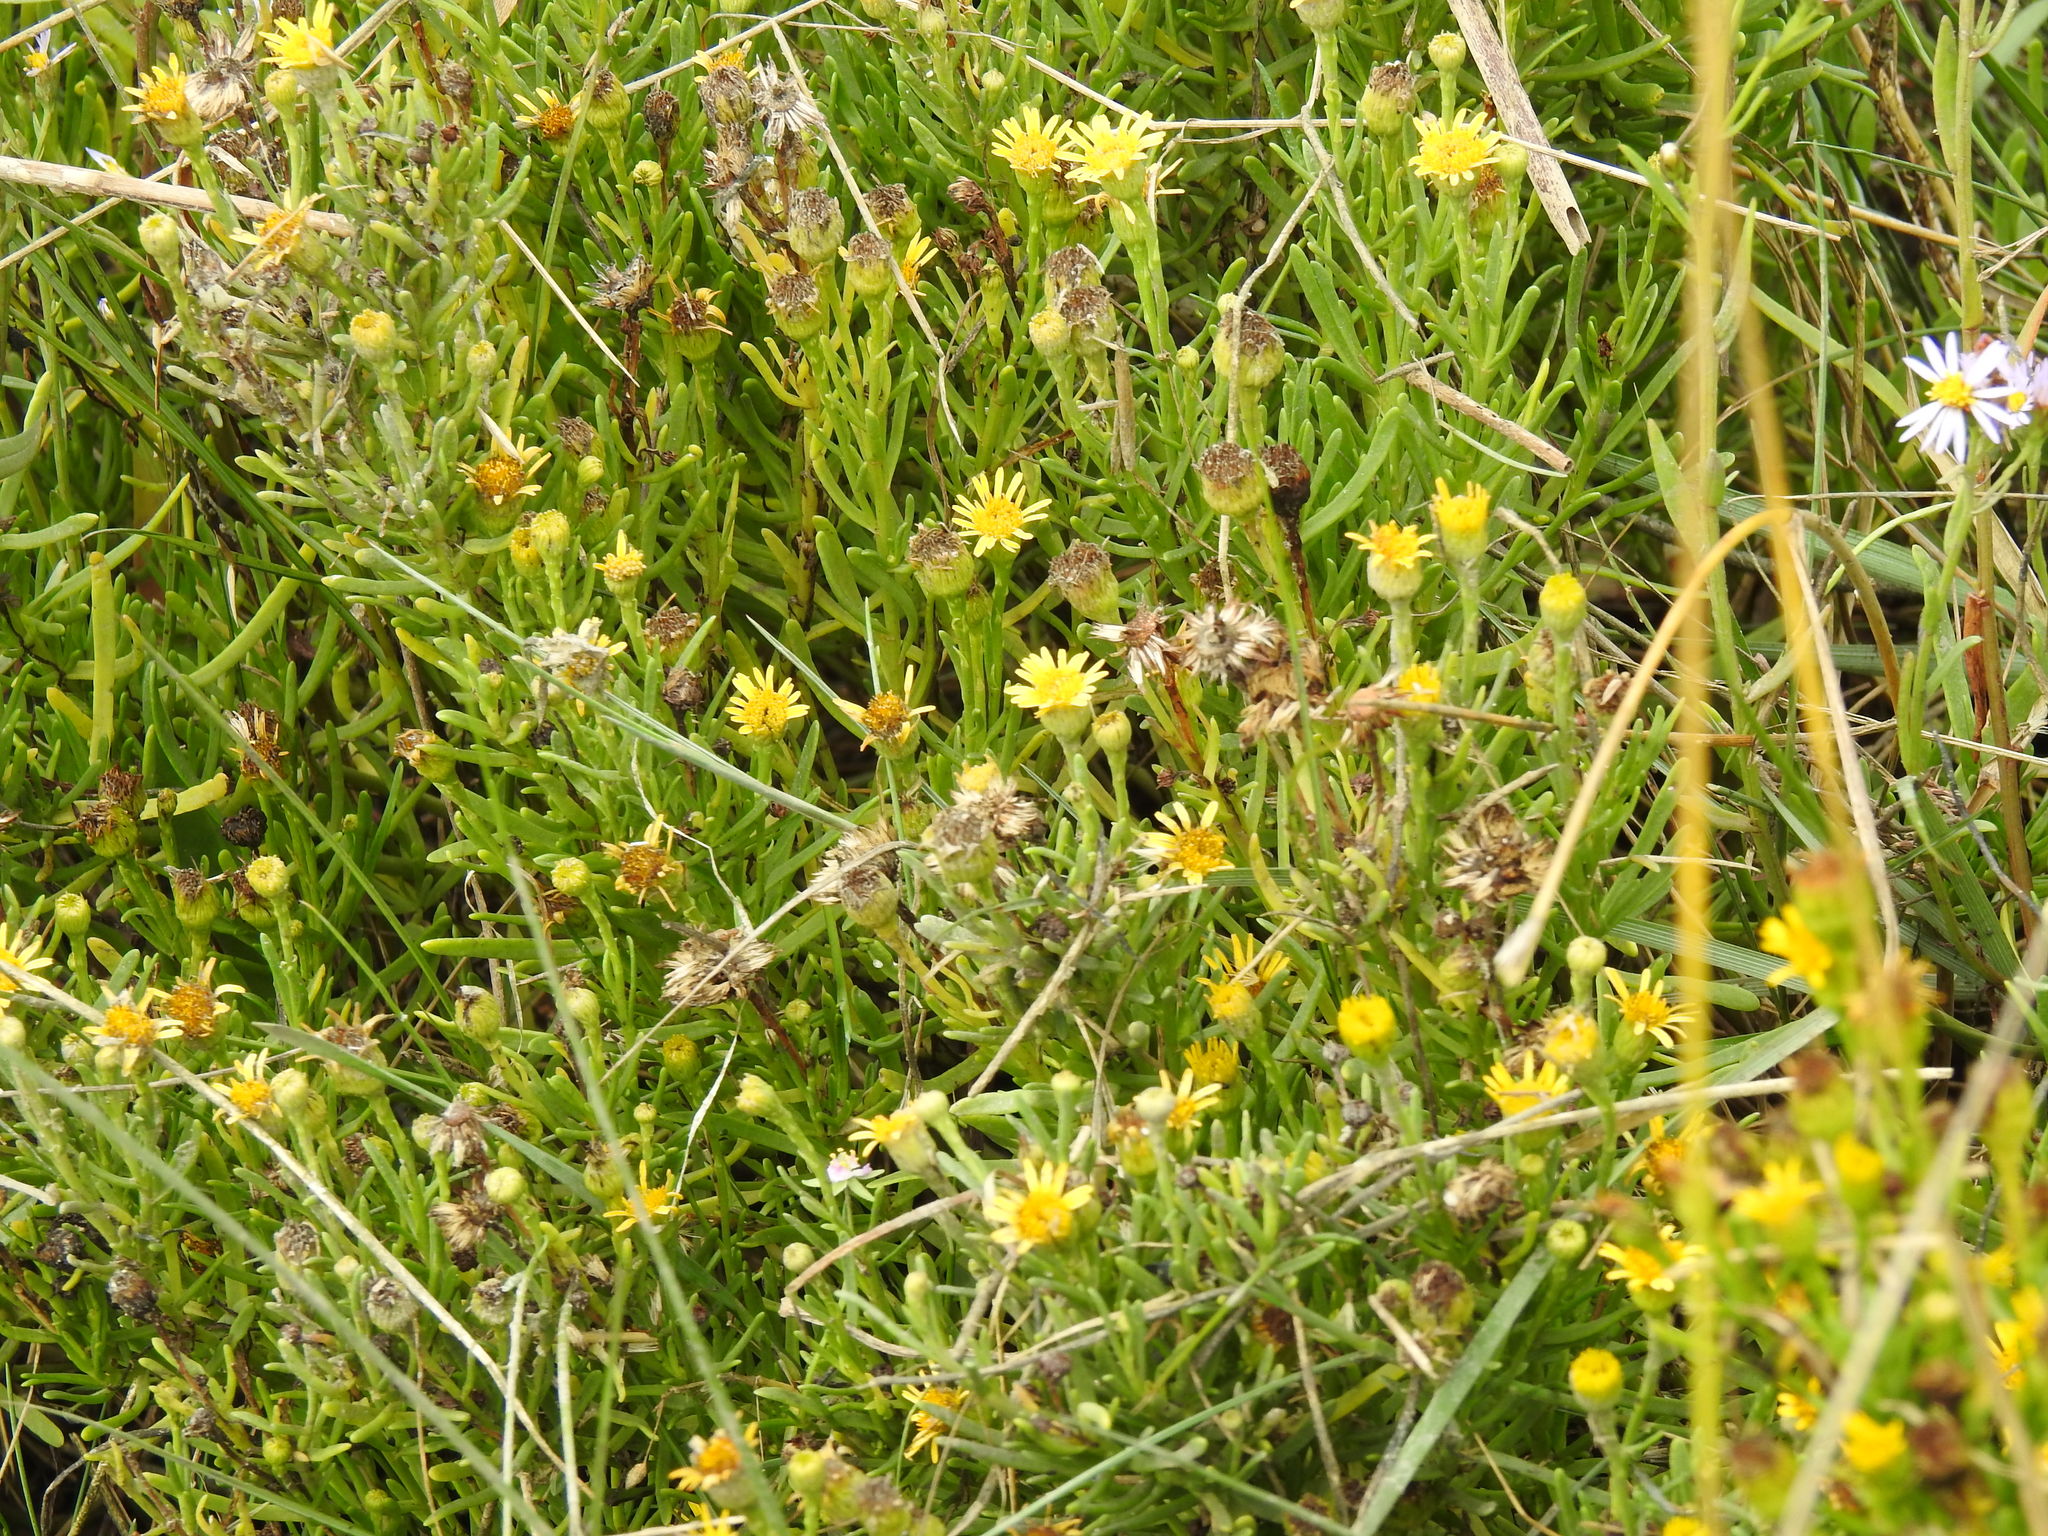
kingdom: Plantae
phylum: Tracheophyta
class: Magnoliopsida
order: Asterales
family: Asteraceae
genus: Limbarda
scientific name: Limbarda crithmoides
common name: Golden samphire
